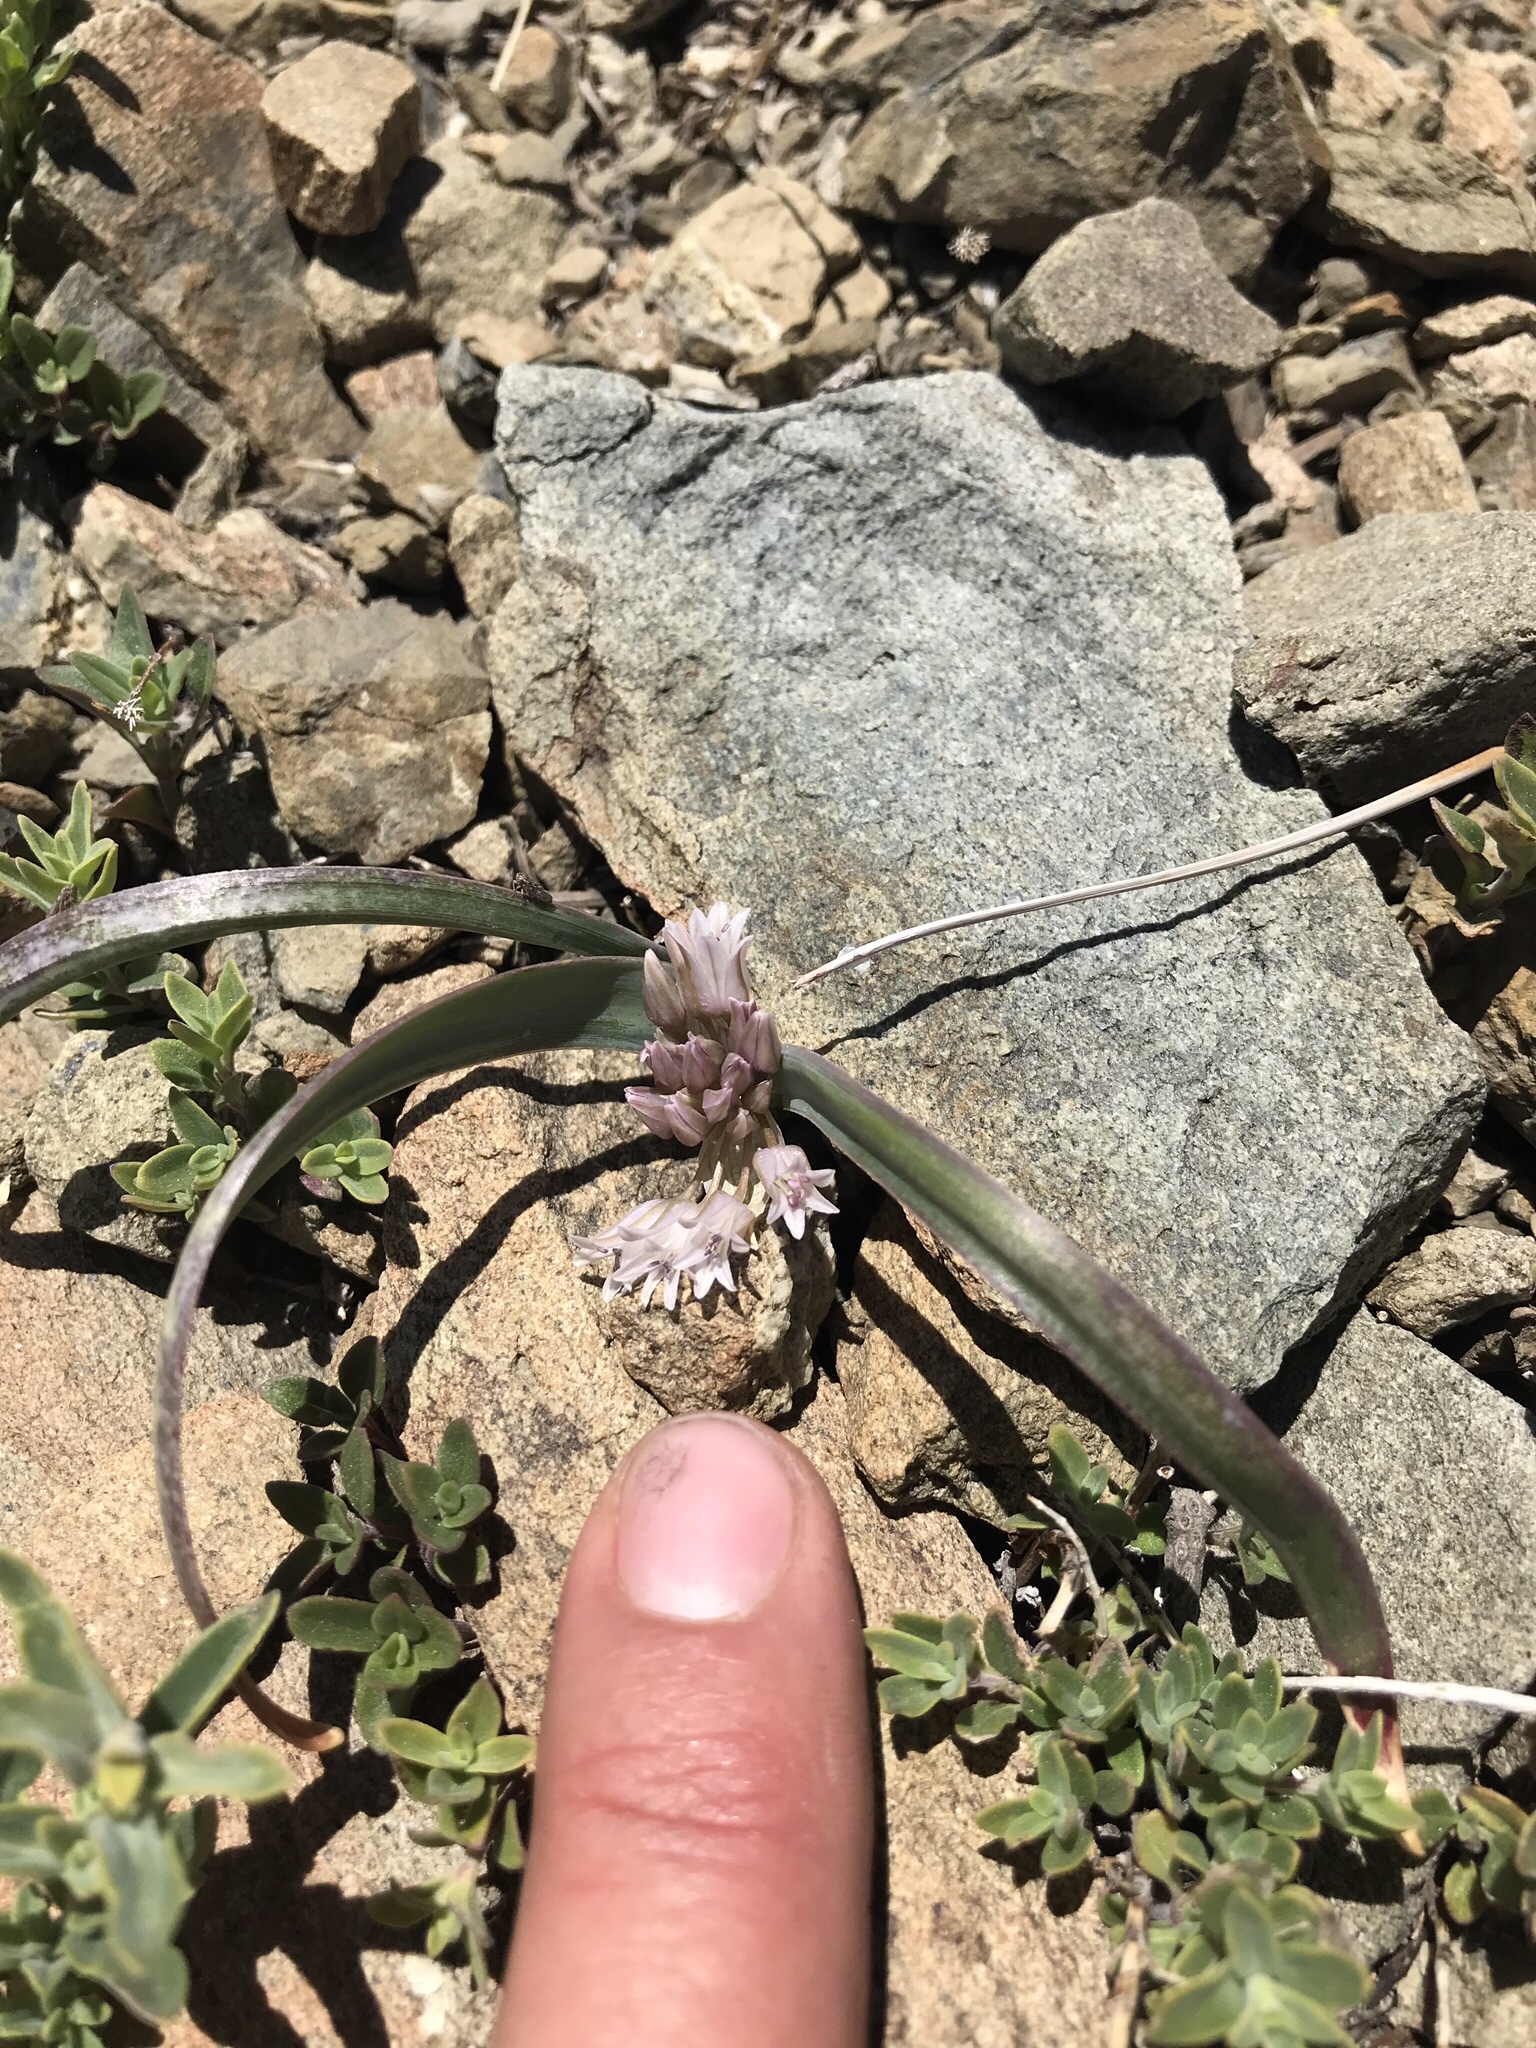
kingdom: Plantae
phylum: Tracheophyta
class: Liliopsida
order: Asparagales
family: Amaryllidaceae
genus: Allium
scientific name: Allium siskiyouense
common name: Siskiyou onion
